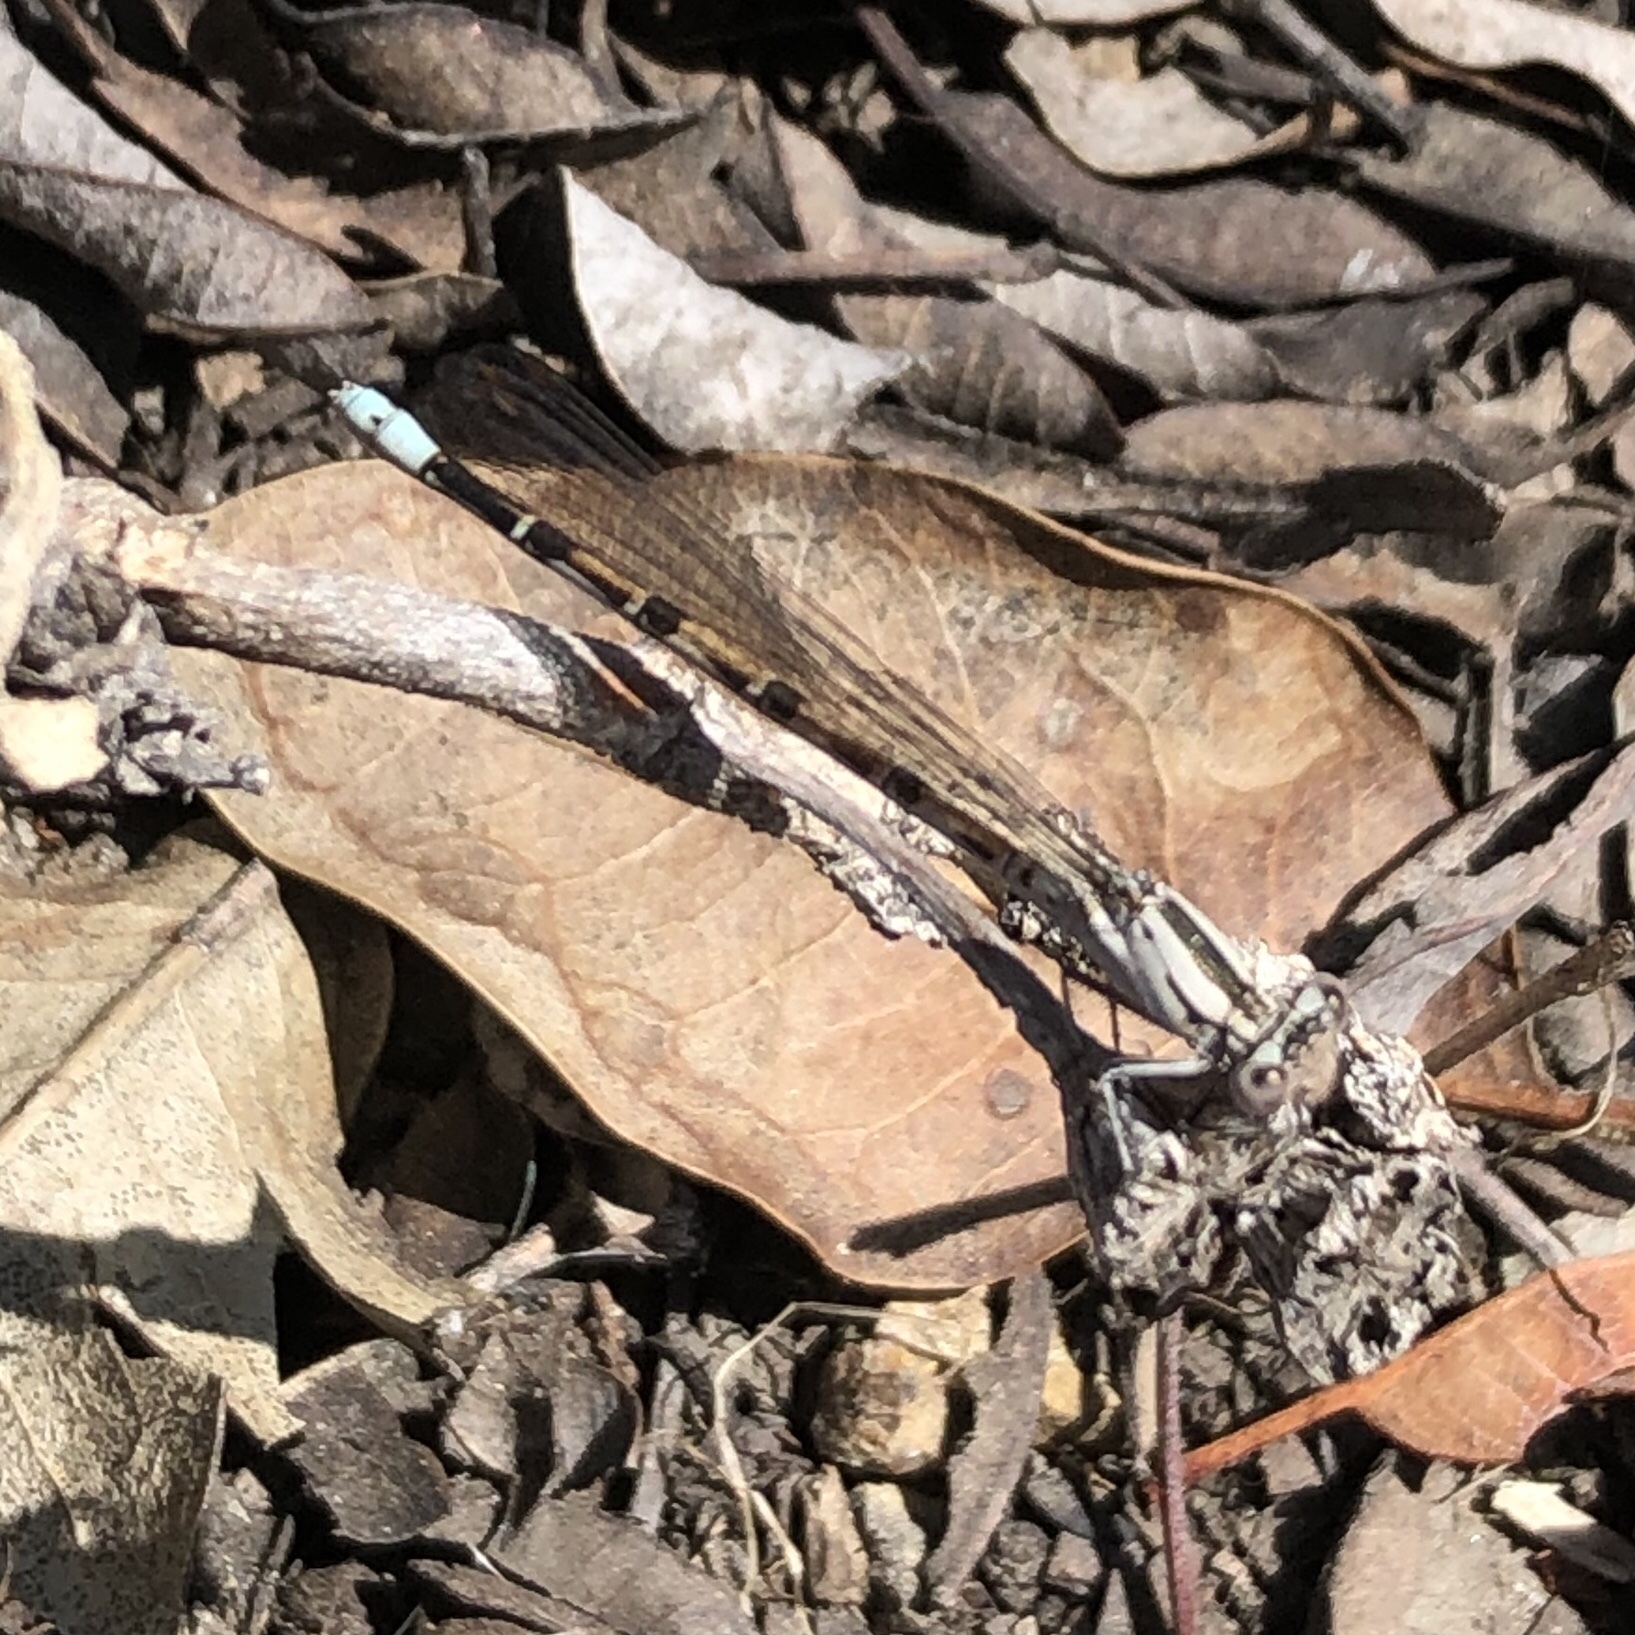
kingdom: Animalia
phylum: Arthropoda
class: Insecta
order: Odonata
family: Coenagrionidae
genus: Argia
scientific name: Argia vivida
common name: Vivid dancer
